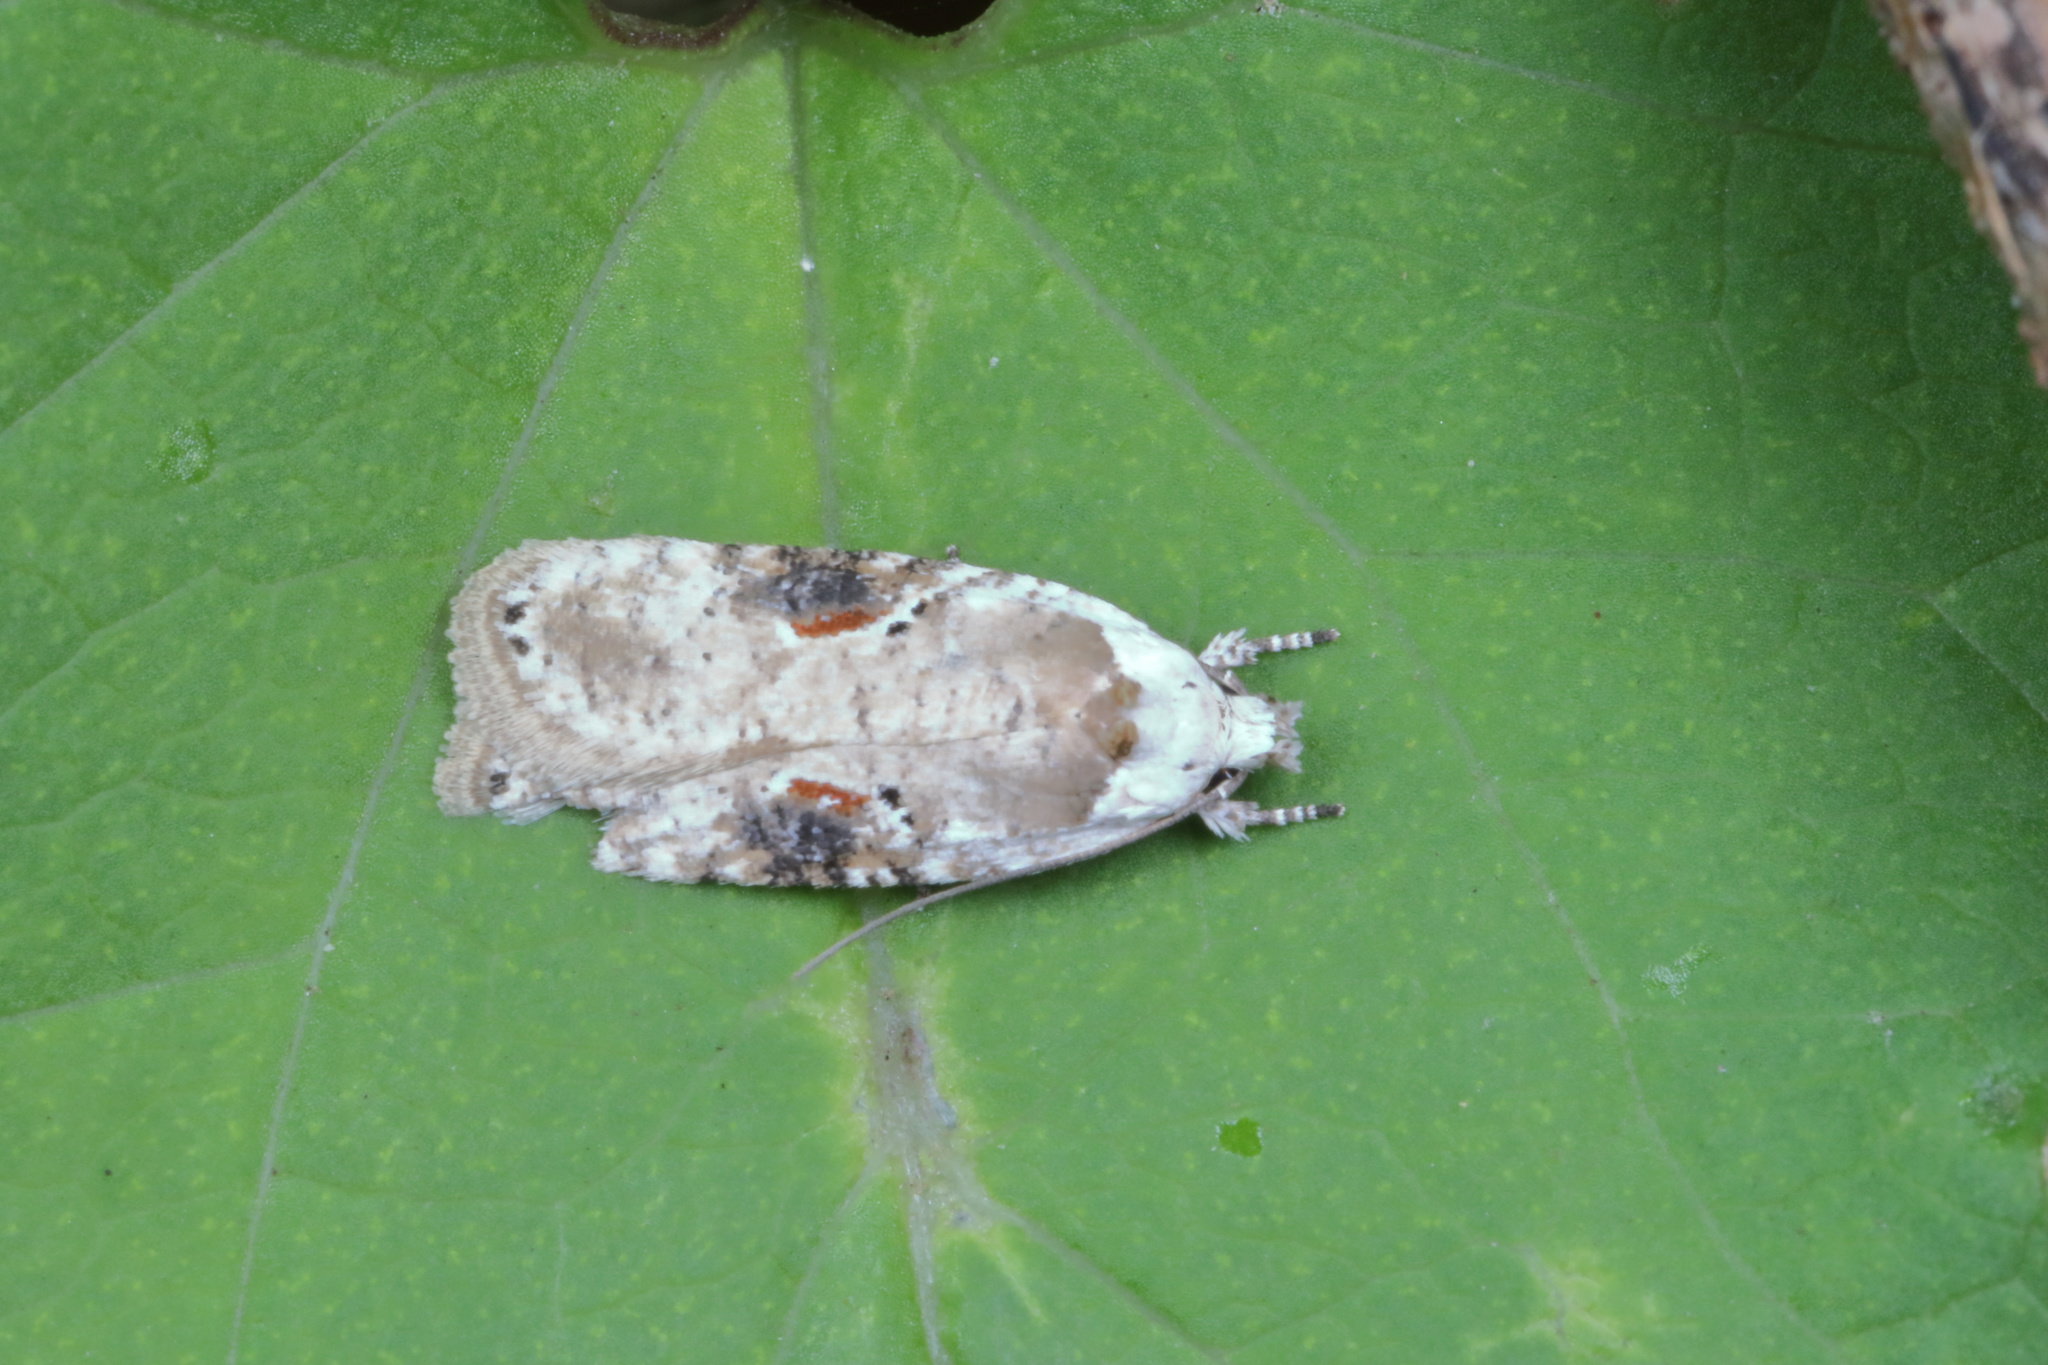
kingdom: Animalia
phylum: Arthropoda
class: Insecta
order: Lepidoptera
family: Depressariidae
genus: Agonopterix
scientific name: Agonopterix alstroemeriana
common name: Moth
